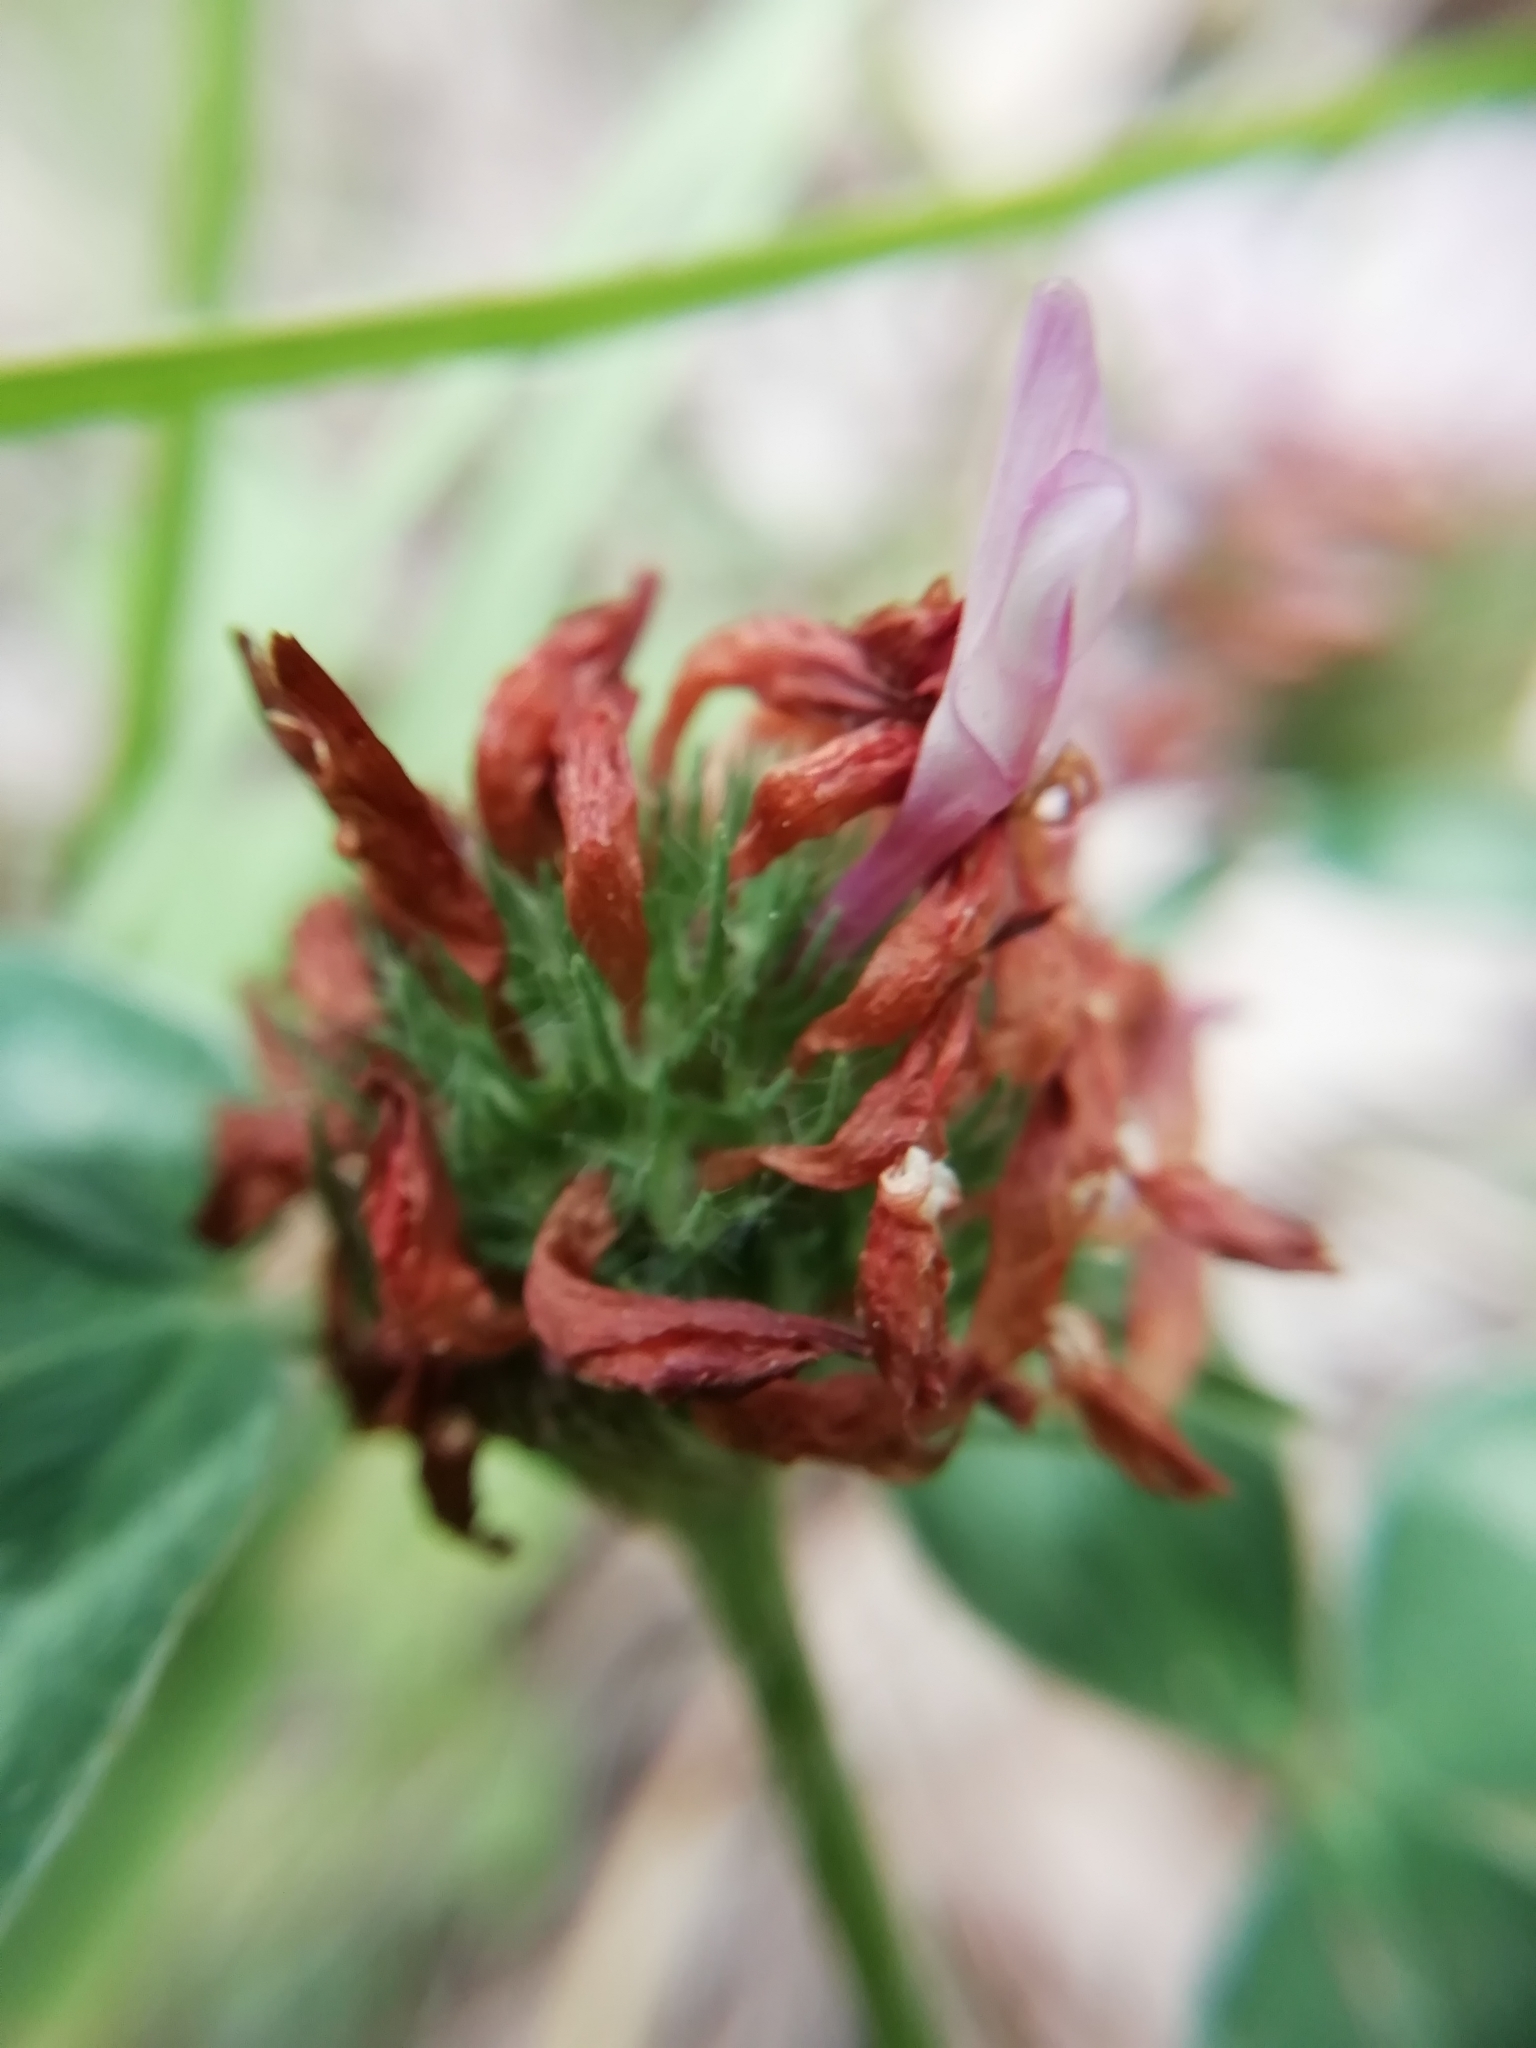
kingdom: Plantae
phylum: Tracheophyta
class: Magnoliopsida
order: Fabales
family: Fabaceae
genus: Trifolium
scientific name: Trifolium pratense
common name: Red clover
